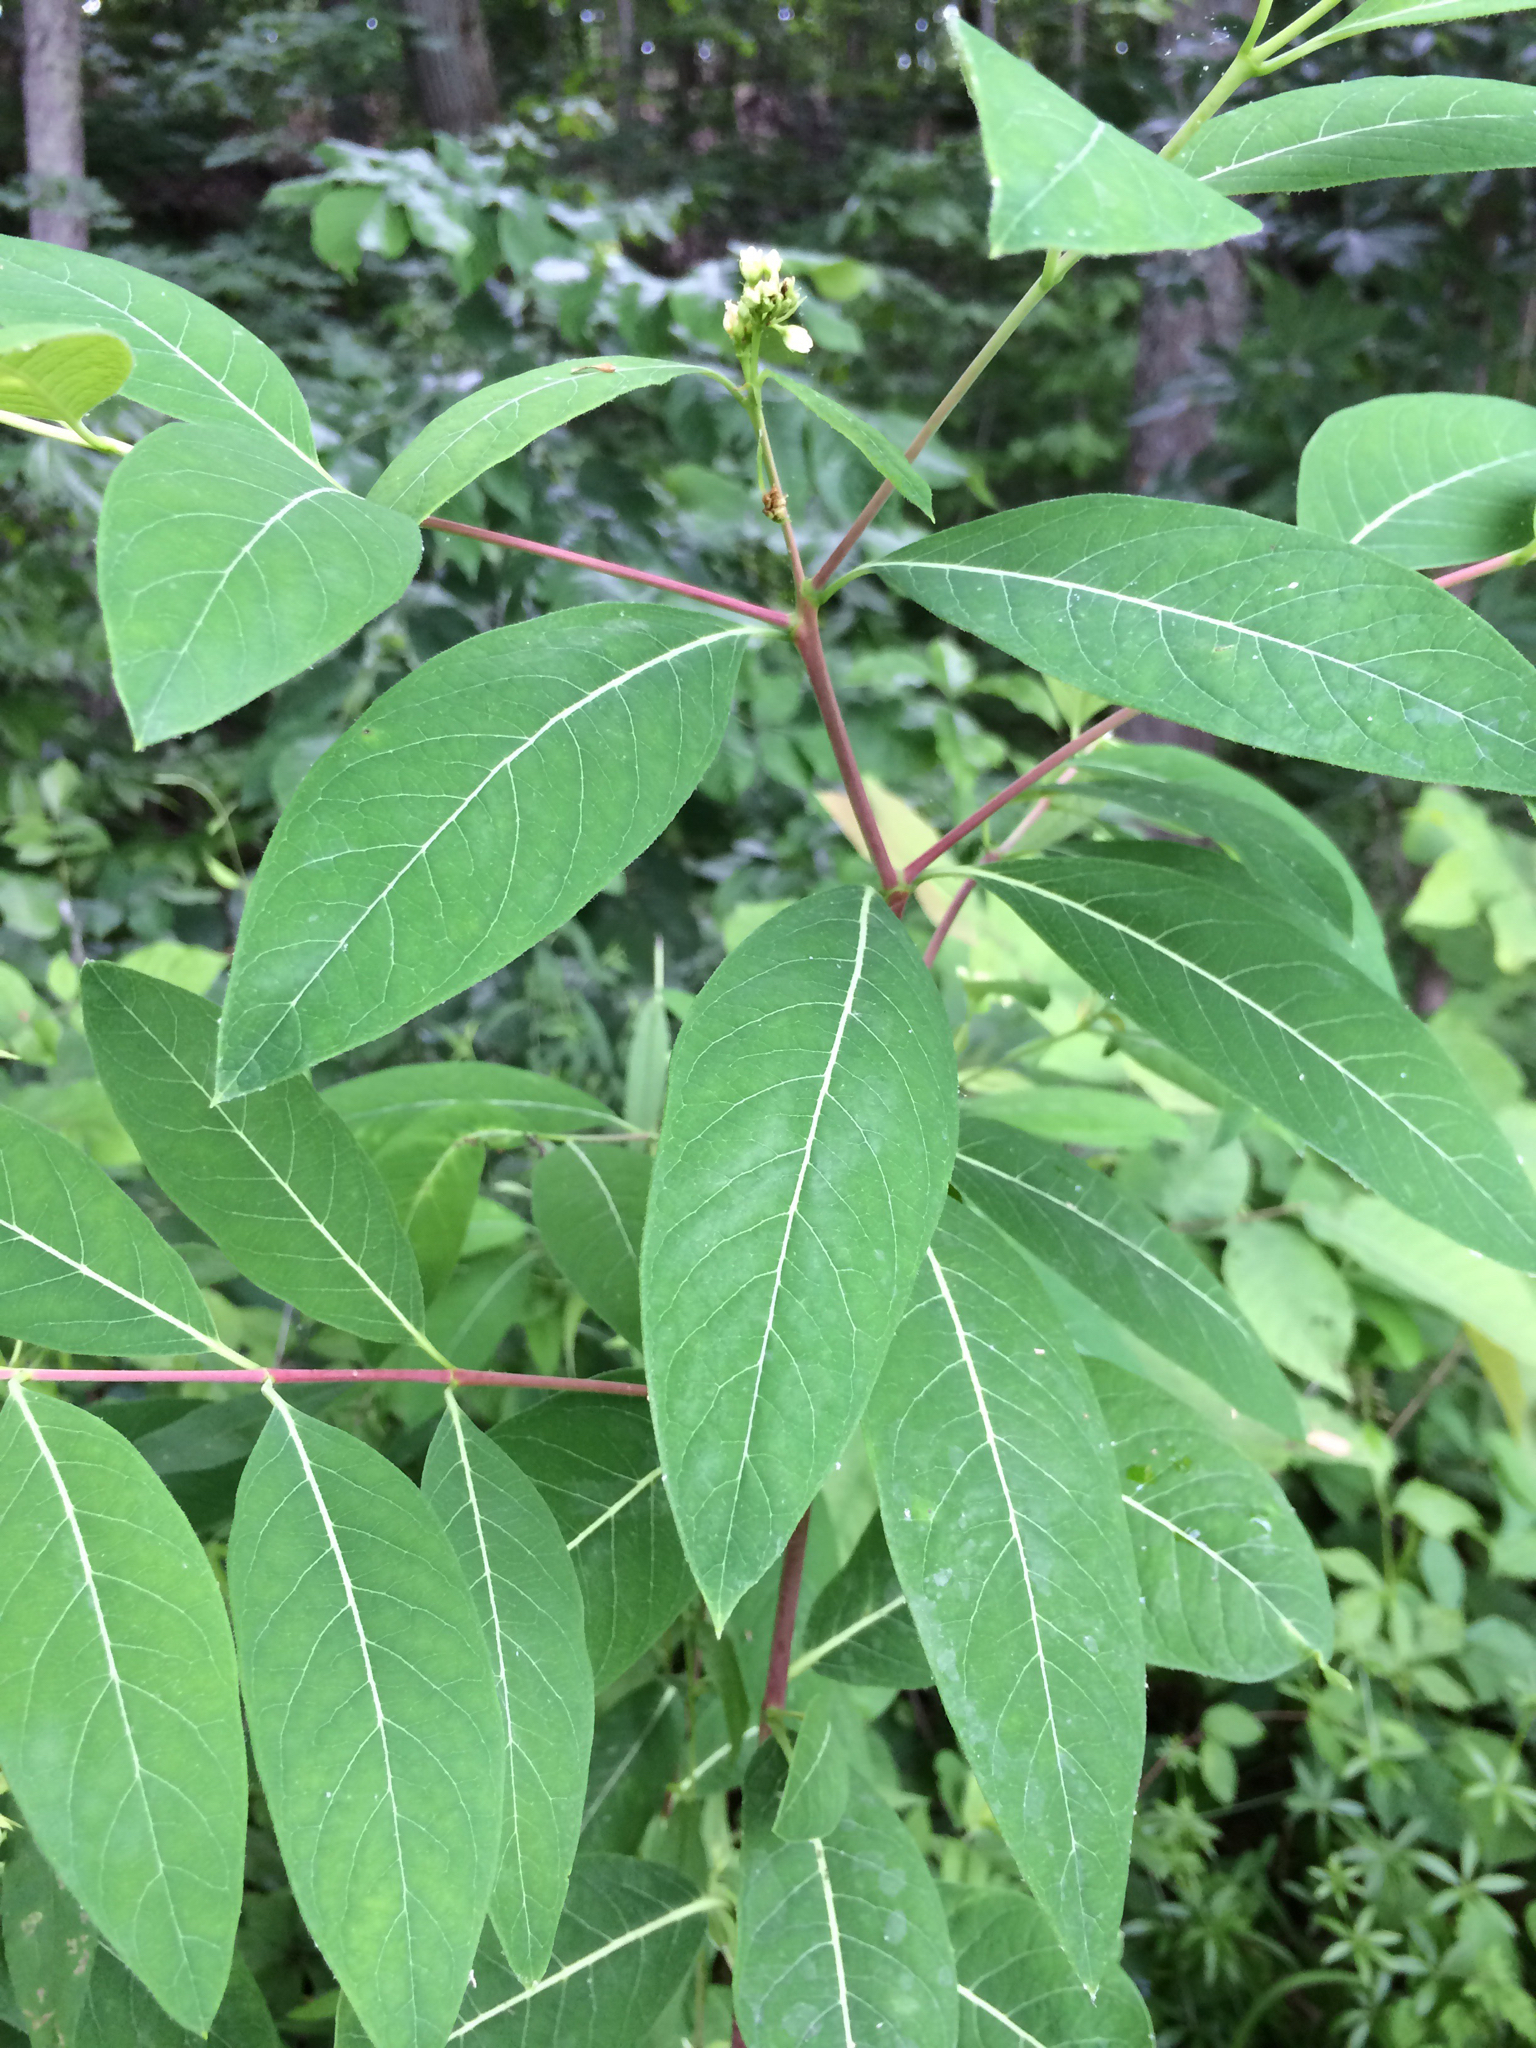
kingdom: Plantae
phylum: Tracheophyta
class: Magnoliopsida
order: Gentianales
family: Apocynaceae
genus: Apocynum
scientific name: Apocynum cannabinum
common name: Hemp dogbane
